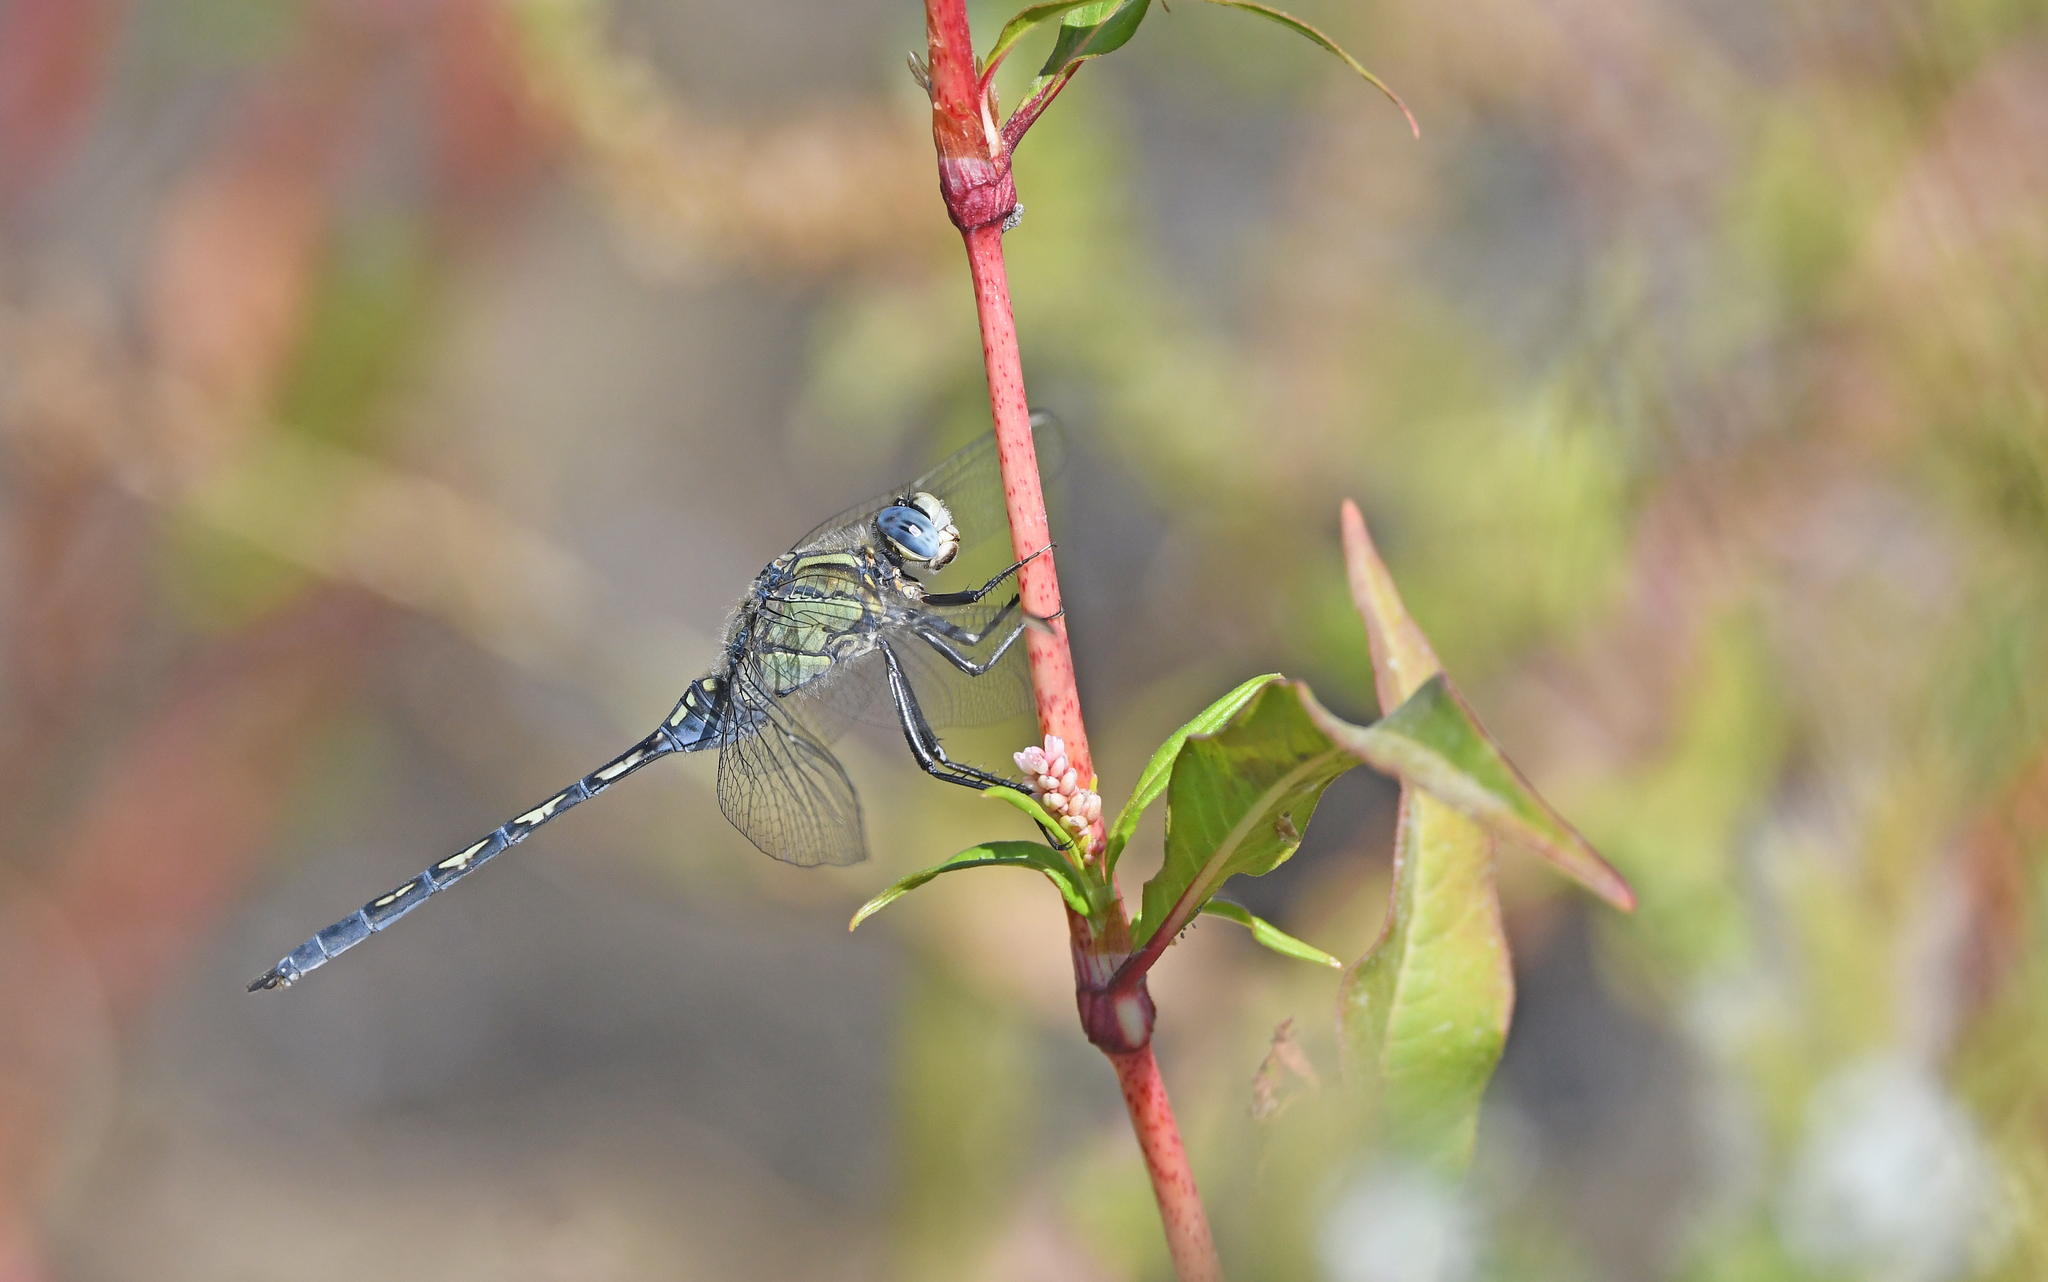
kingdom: Animalia
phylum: Arthropoda
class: Insecta
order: Odonata
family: Libellulidae
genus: Orthetrum
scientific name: Orthetrum trinacria
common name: Long skimmer
